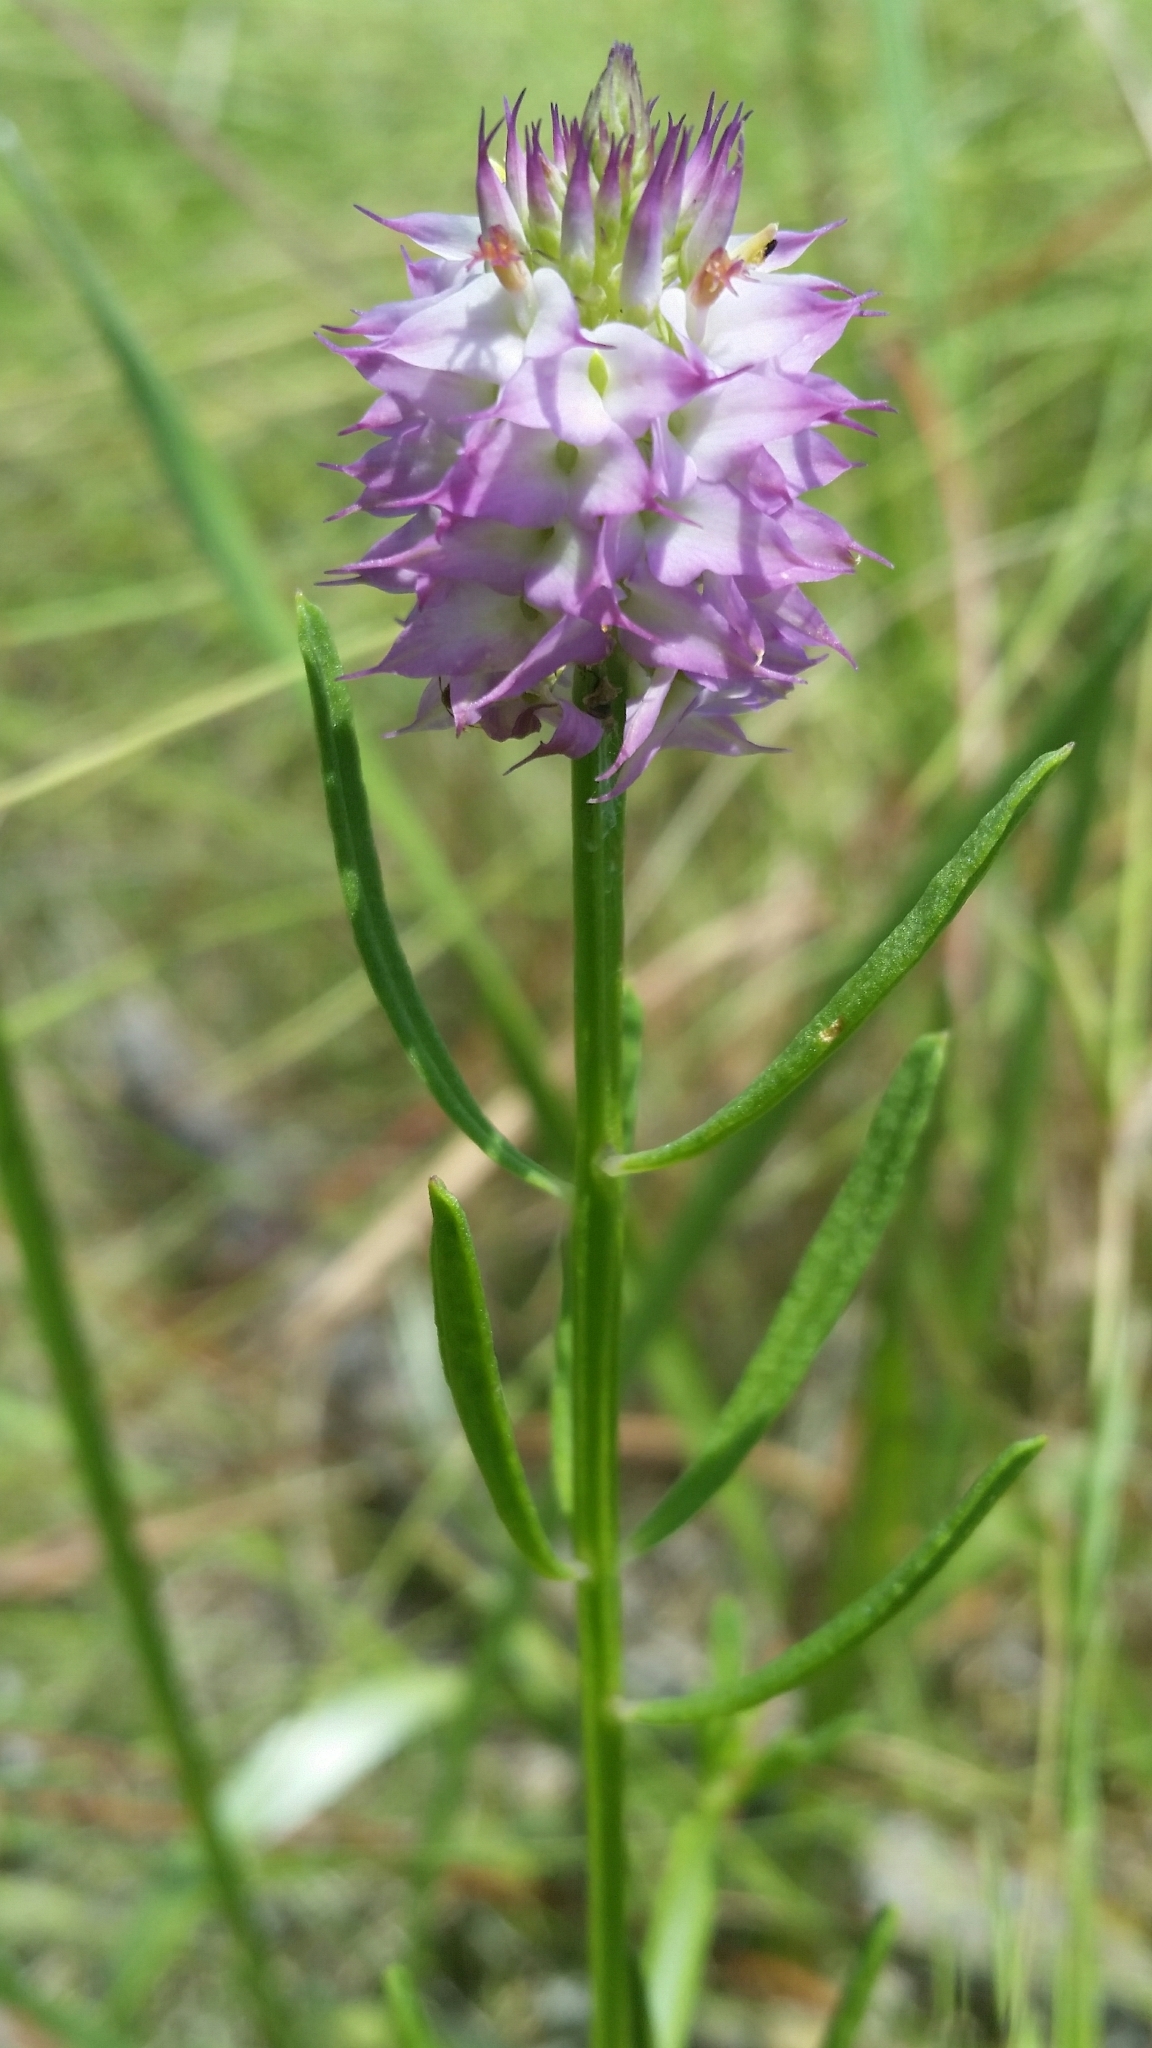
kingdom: Plantae
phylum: Tracheophyta
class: Magnoliopsida
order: Fabales
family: Polygalaceae
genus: Polygala
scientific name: Polygala cruciata
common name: Drumheads
